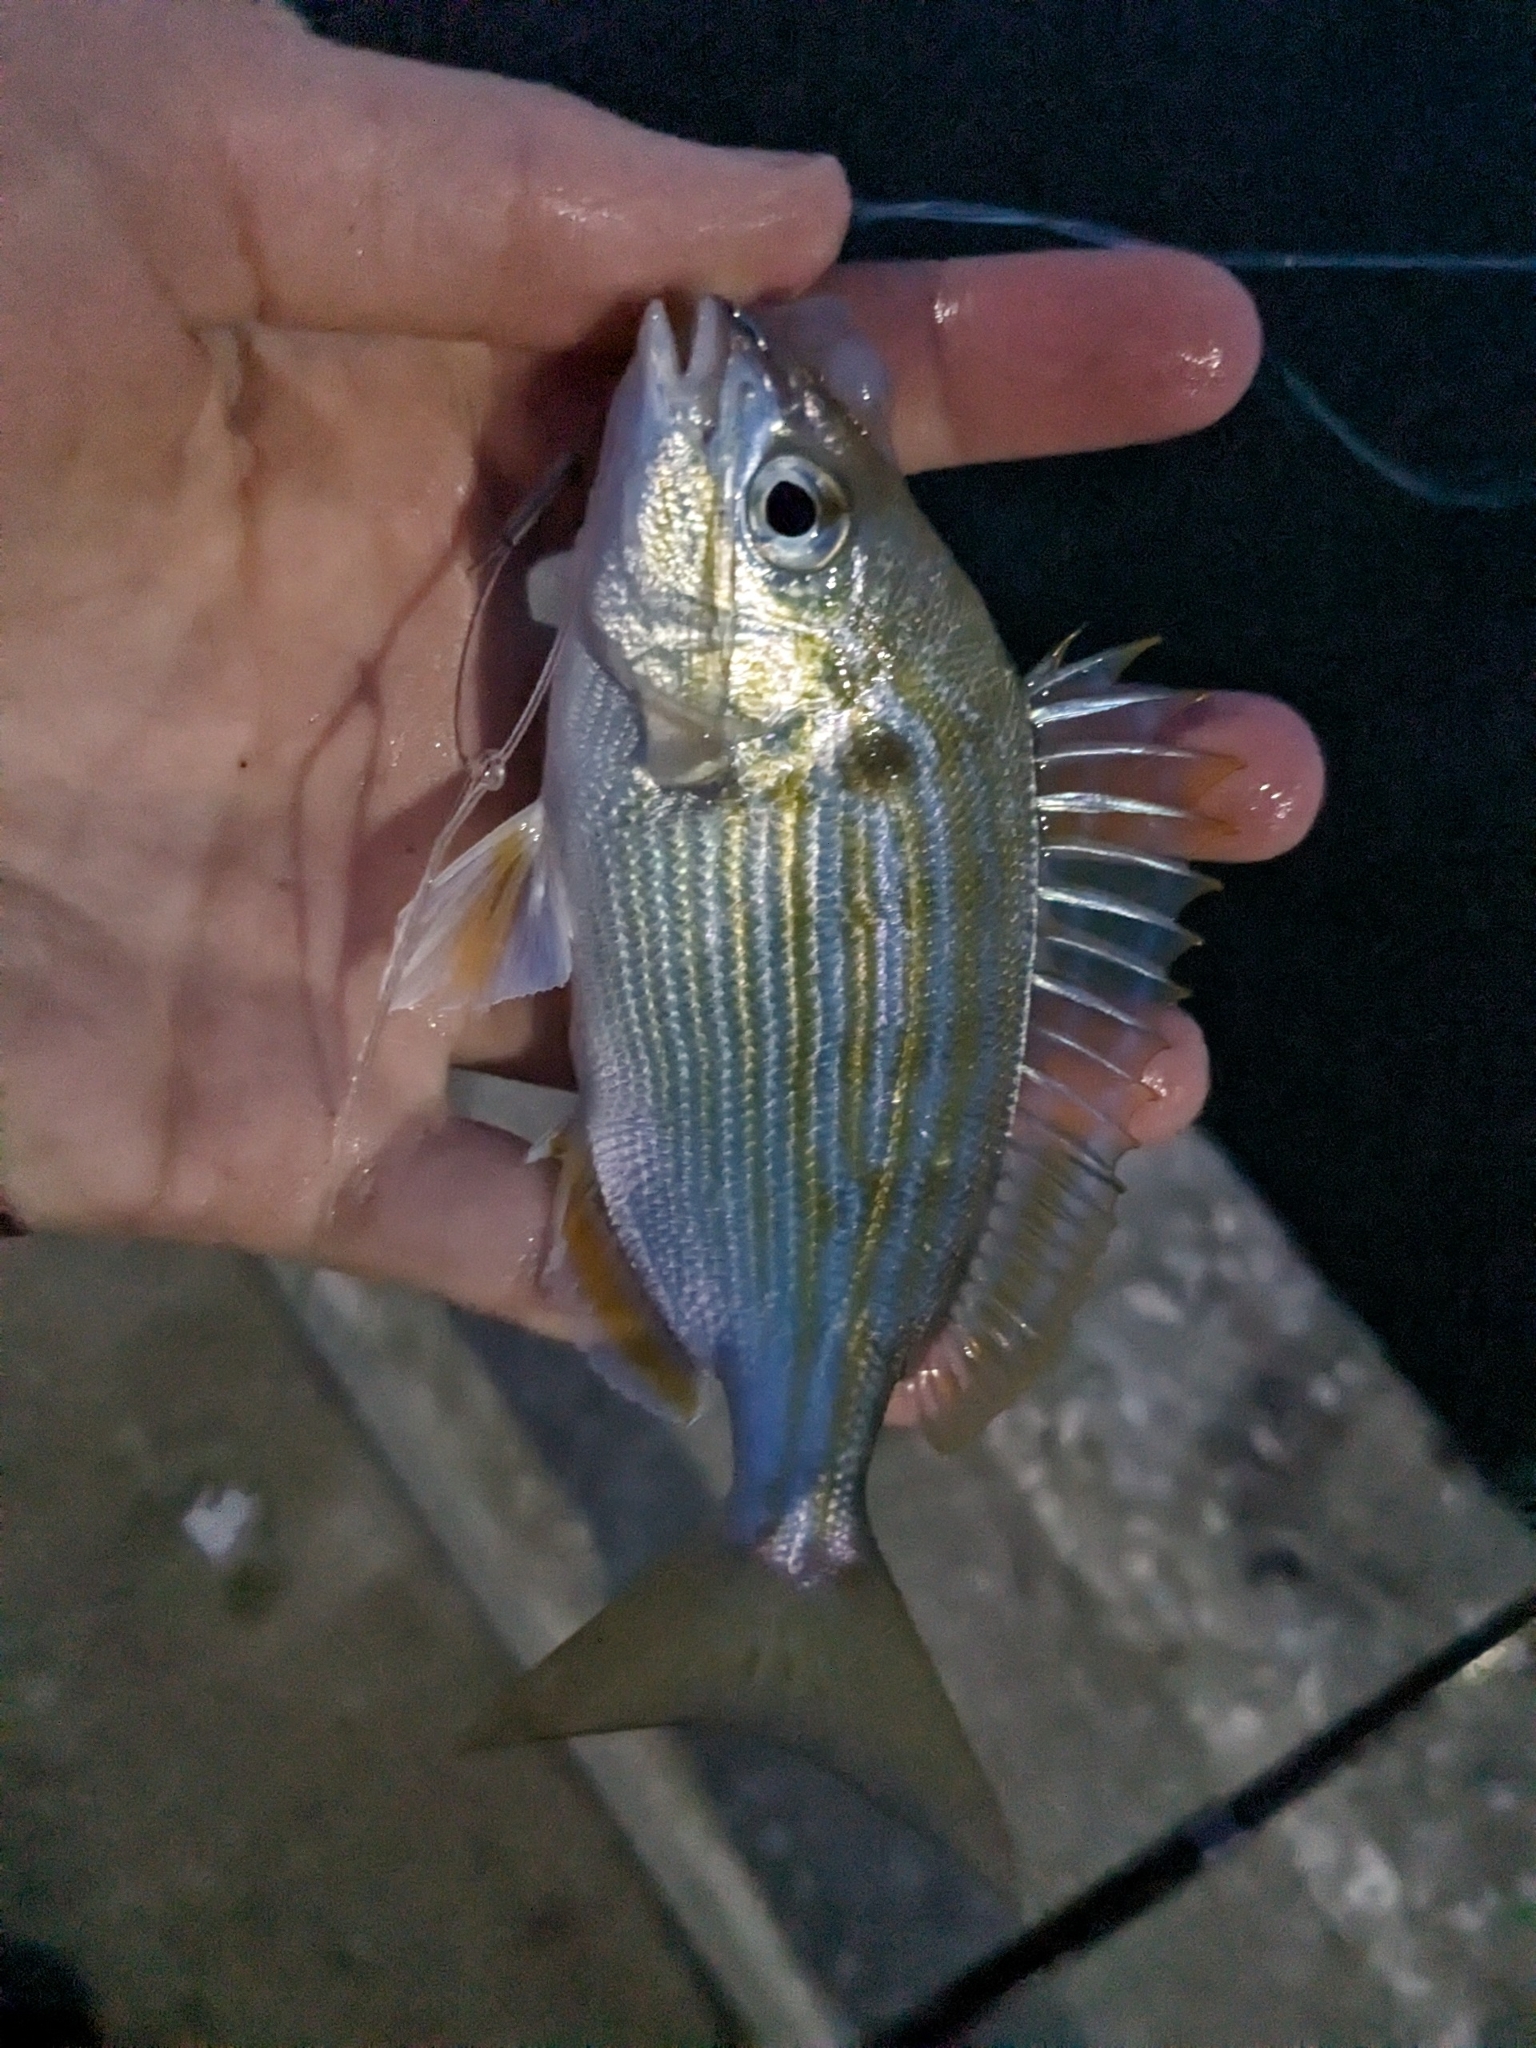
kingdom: Animalia
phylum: Chordata
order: Perciformes
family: Sparidae
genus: Lagodon
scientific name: Lagodon rhomboides
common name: Pinfish
